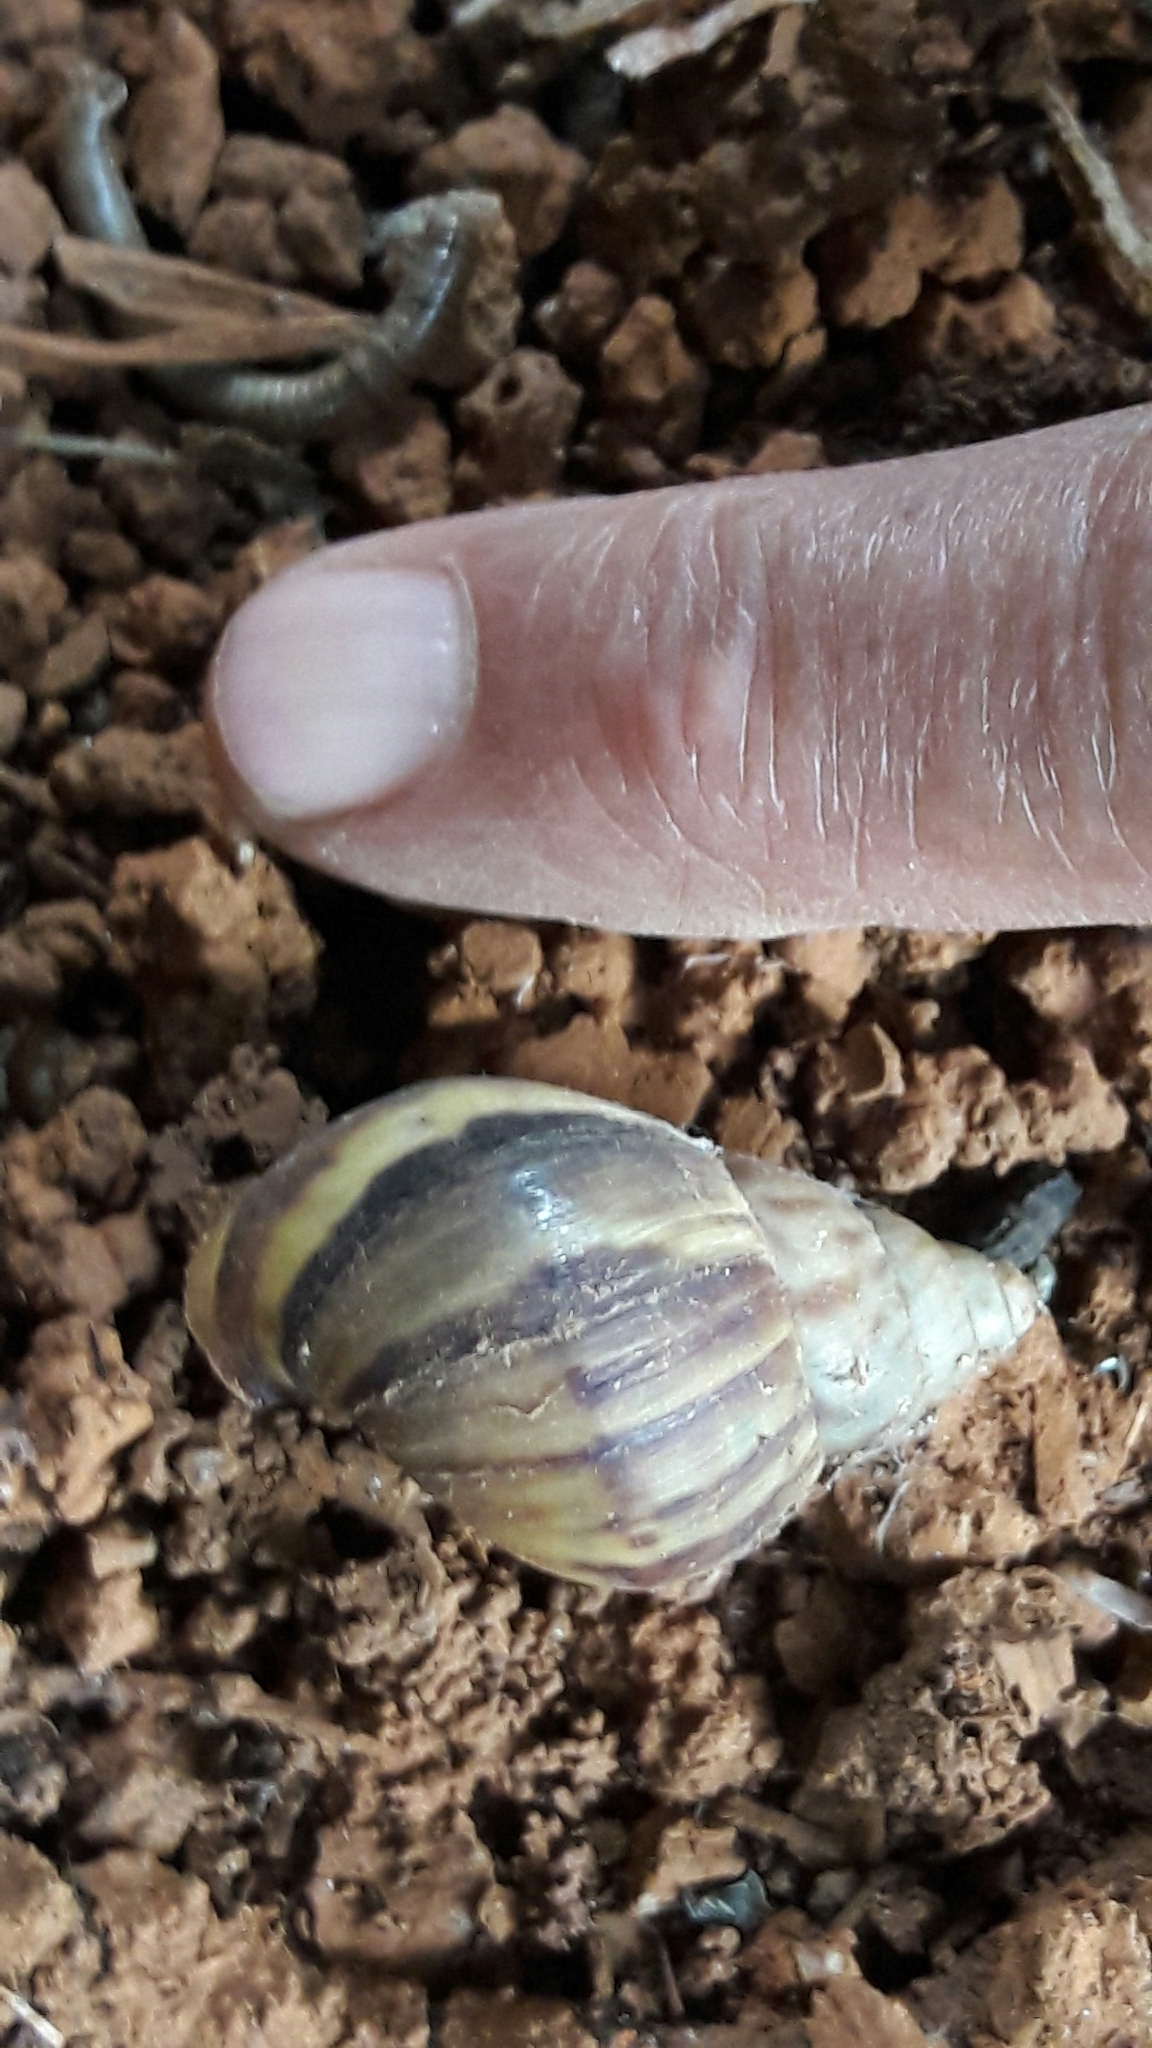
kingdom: Animalia
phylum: Mollusca
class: Gastropoda
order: Stylommatophora
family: Achatinidae
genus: Lissachatina
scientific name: Lissachatina fulica
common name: Giant african snail
